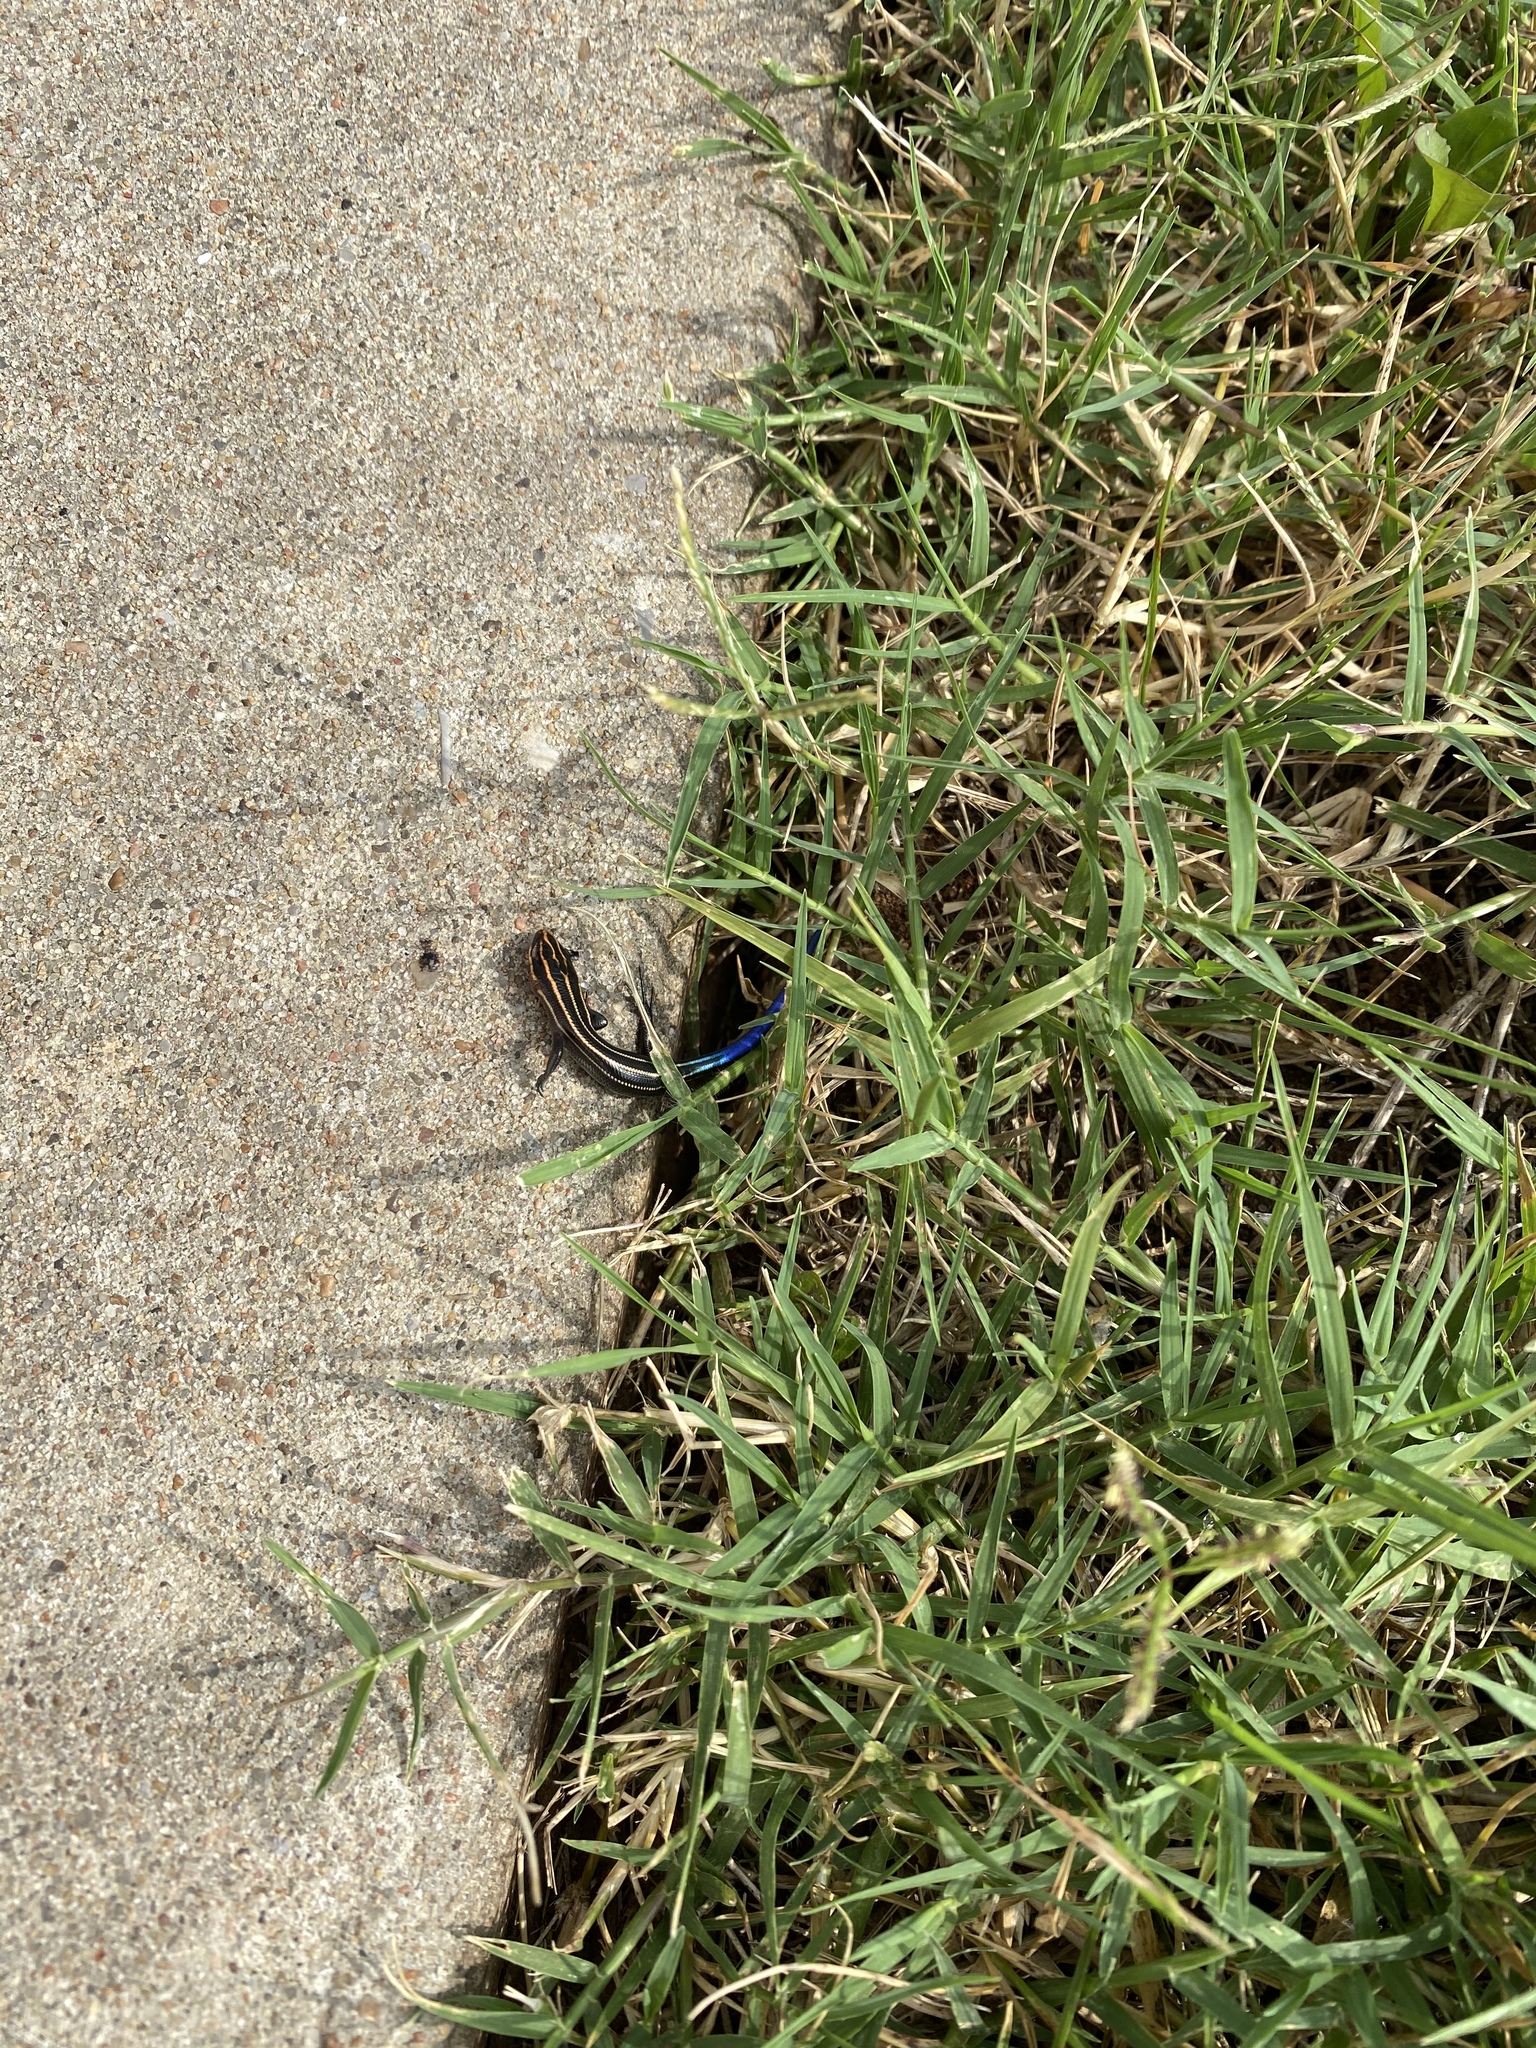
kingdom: Animalia
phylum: Chordata
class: Squamata
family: Scincidae
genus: Plestiodon
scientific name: Plestiodon fasciatus
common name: Five-lined skink
